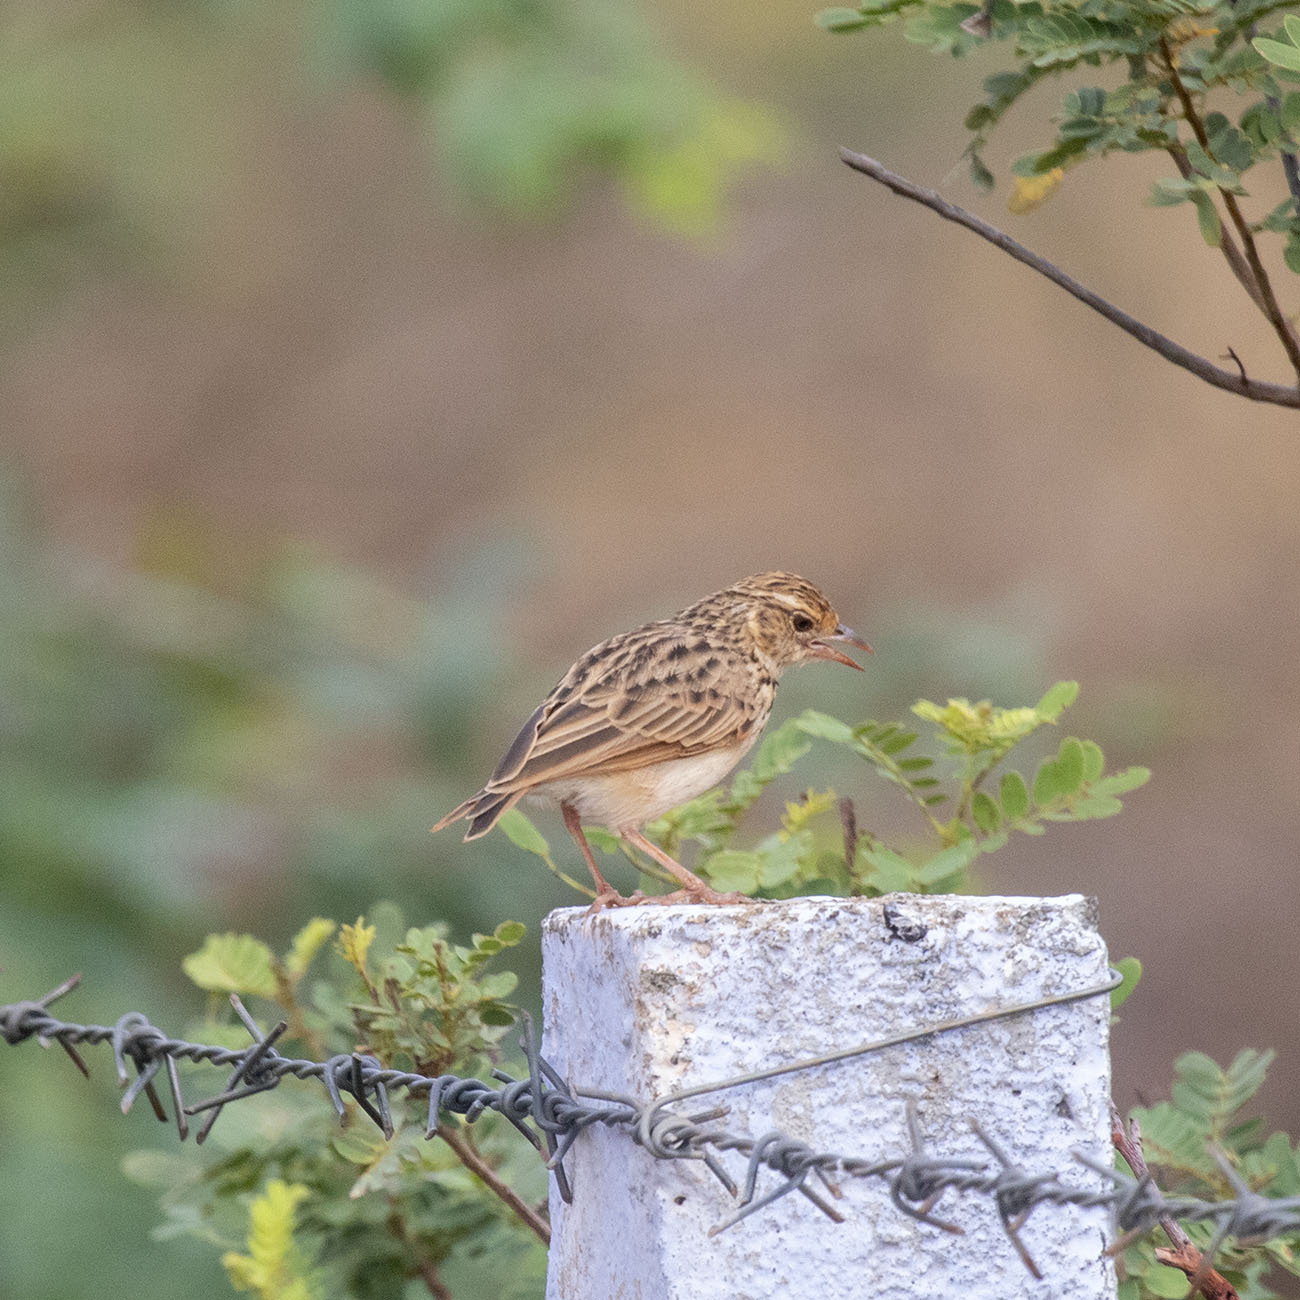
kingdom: Animalia
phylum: Chordata
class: Aves
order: Passeriformes
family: Alaudidae
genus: Mirafra
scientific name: Mirafra affinis
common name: Jerdon's bushlark
